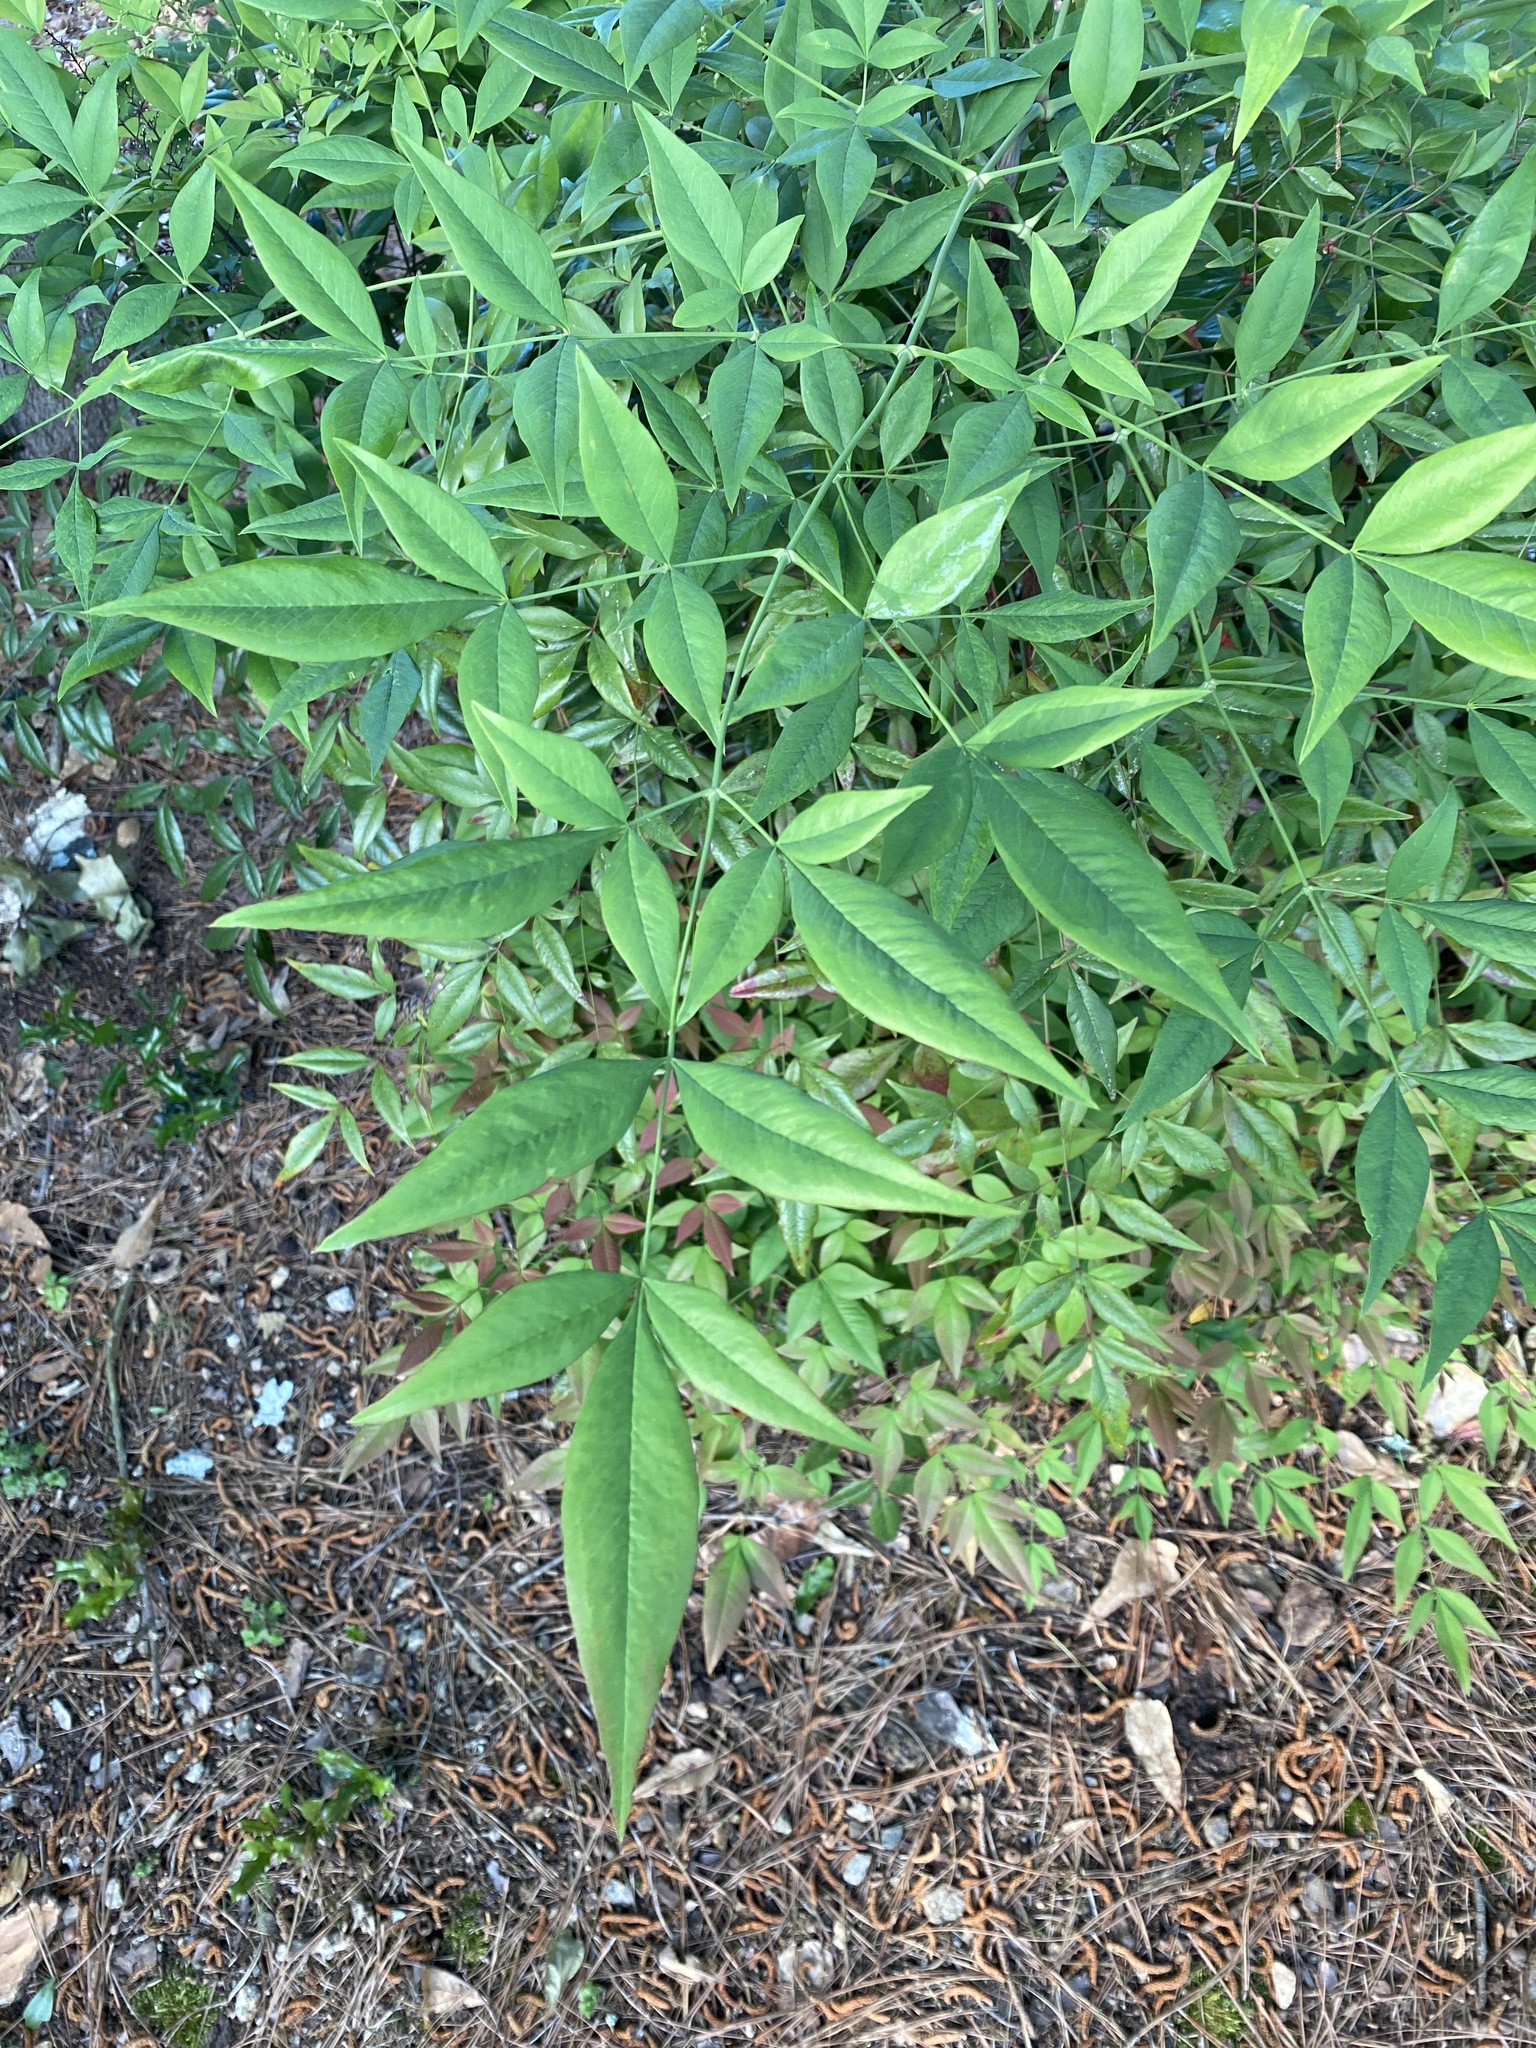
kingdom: Plantae
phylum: Tracheophyta
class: Magnoliopsida
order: Ranunculales
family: Berberidaceae
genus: Nandina
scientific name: Nandina domestica
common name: Sacred bamboo
